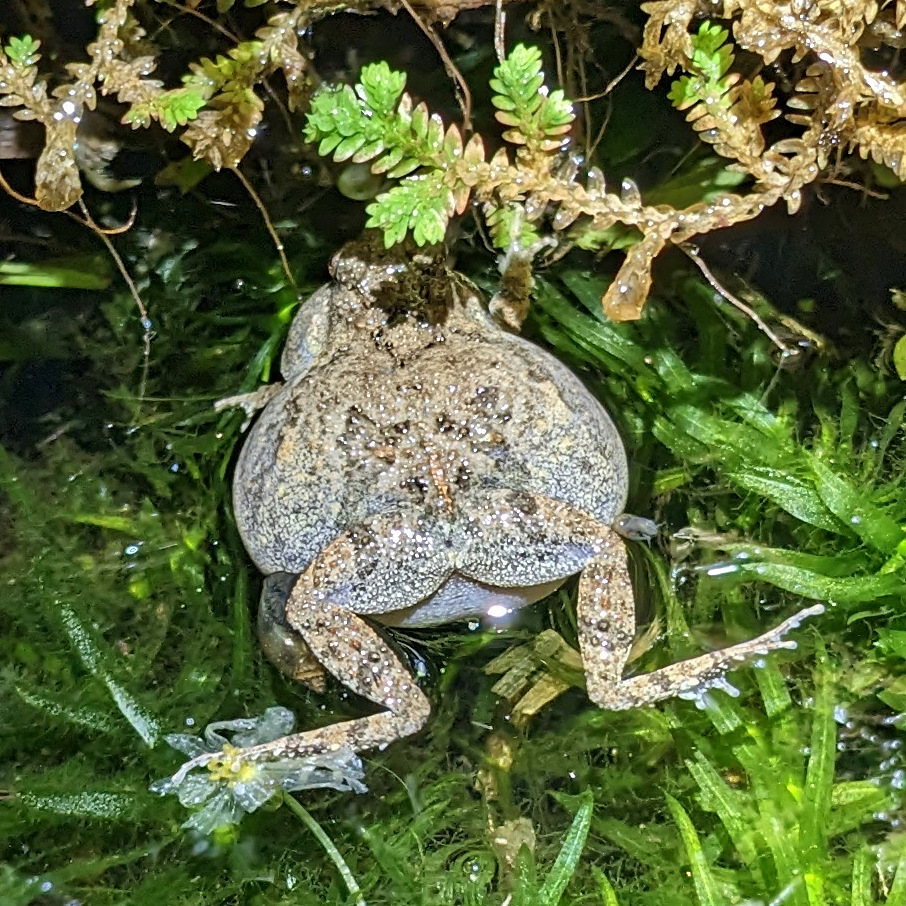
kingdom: Animalia
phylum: Chordata
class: Amphibia
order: Anura
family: Leptodactylidae
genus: Engystomops
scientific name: Engystomops pustulosus
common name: Tungara frog
